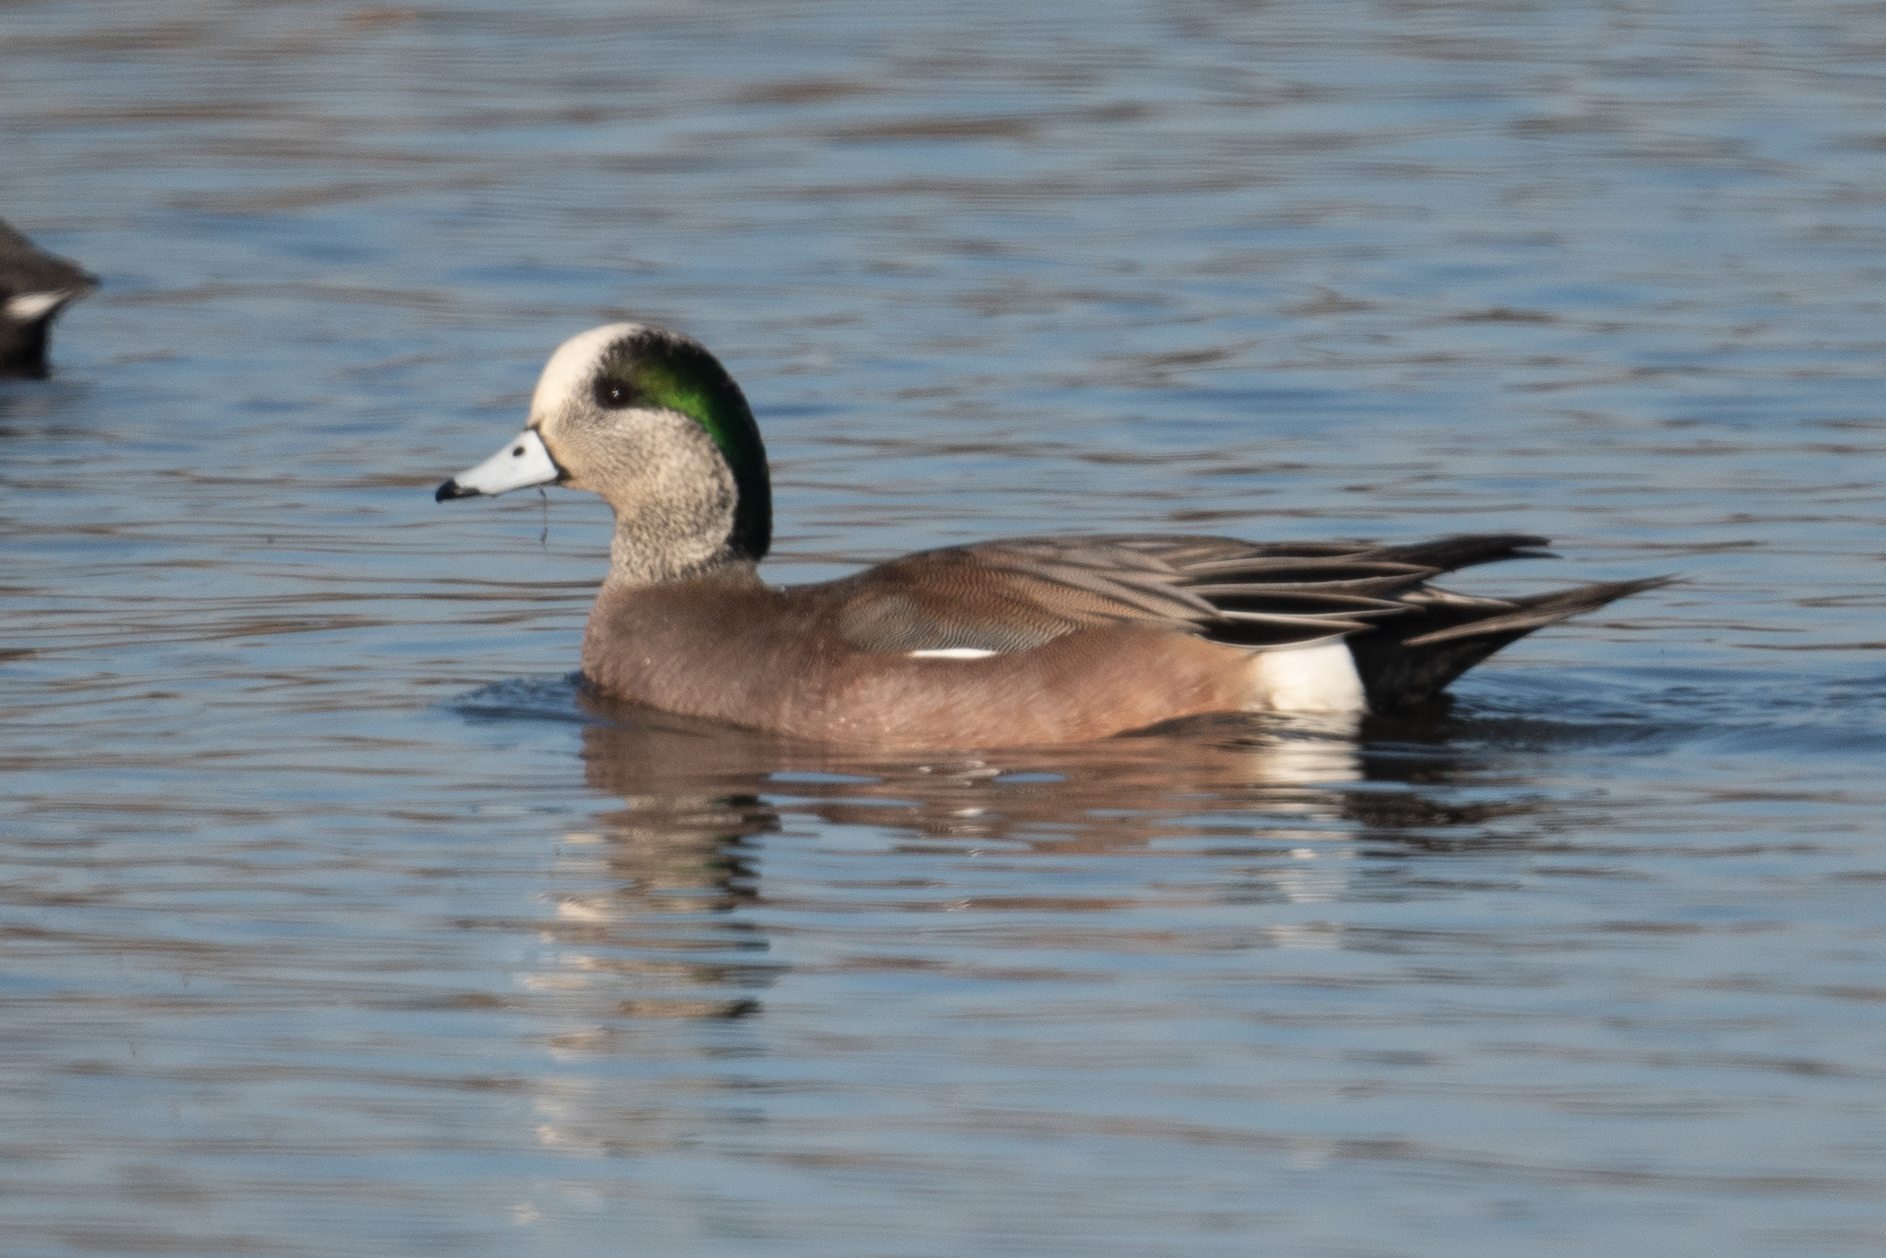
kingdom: Animalia
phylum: Chordata
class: Aves
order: Anseriformes
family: Anatidae
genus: Mareca
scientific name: Mareca americana
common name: American wigeon
